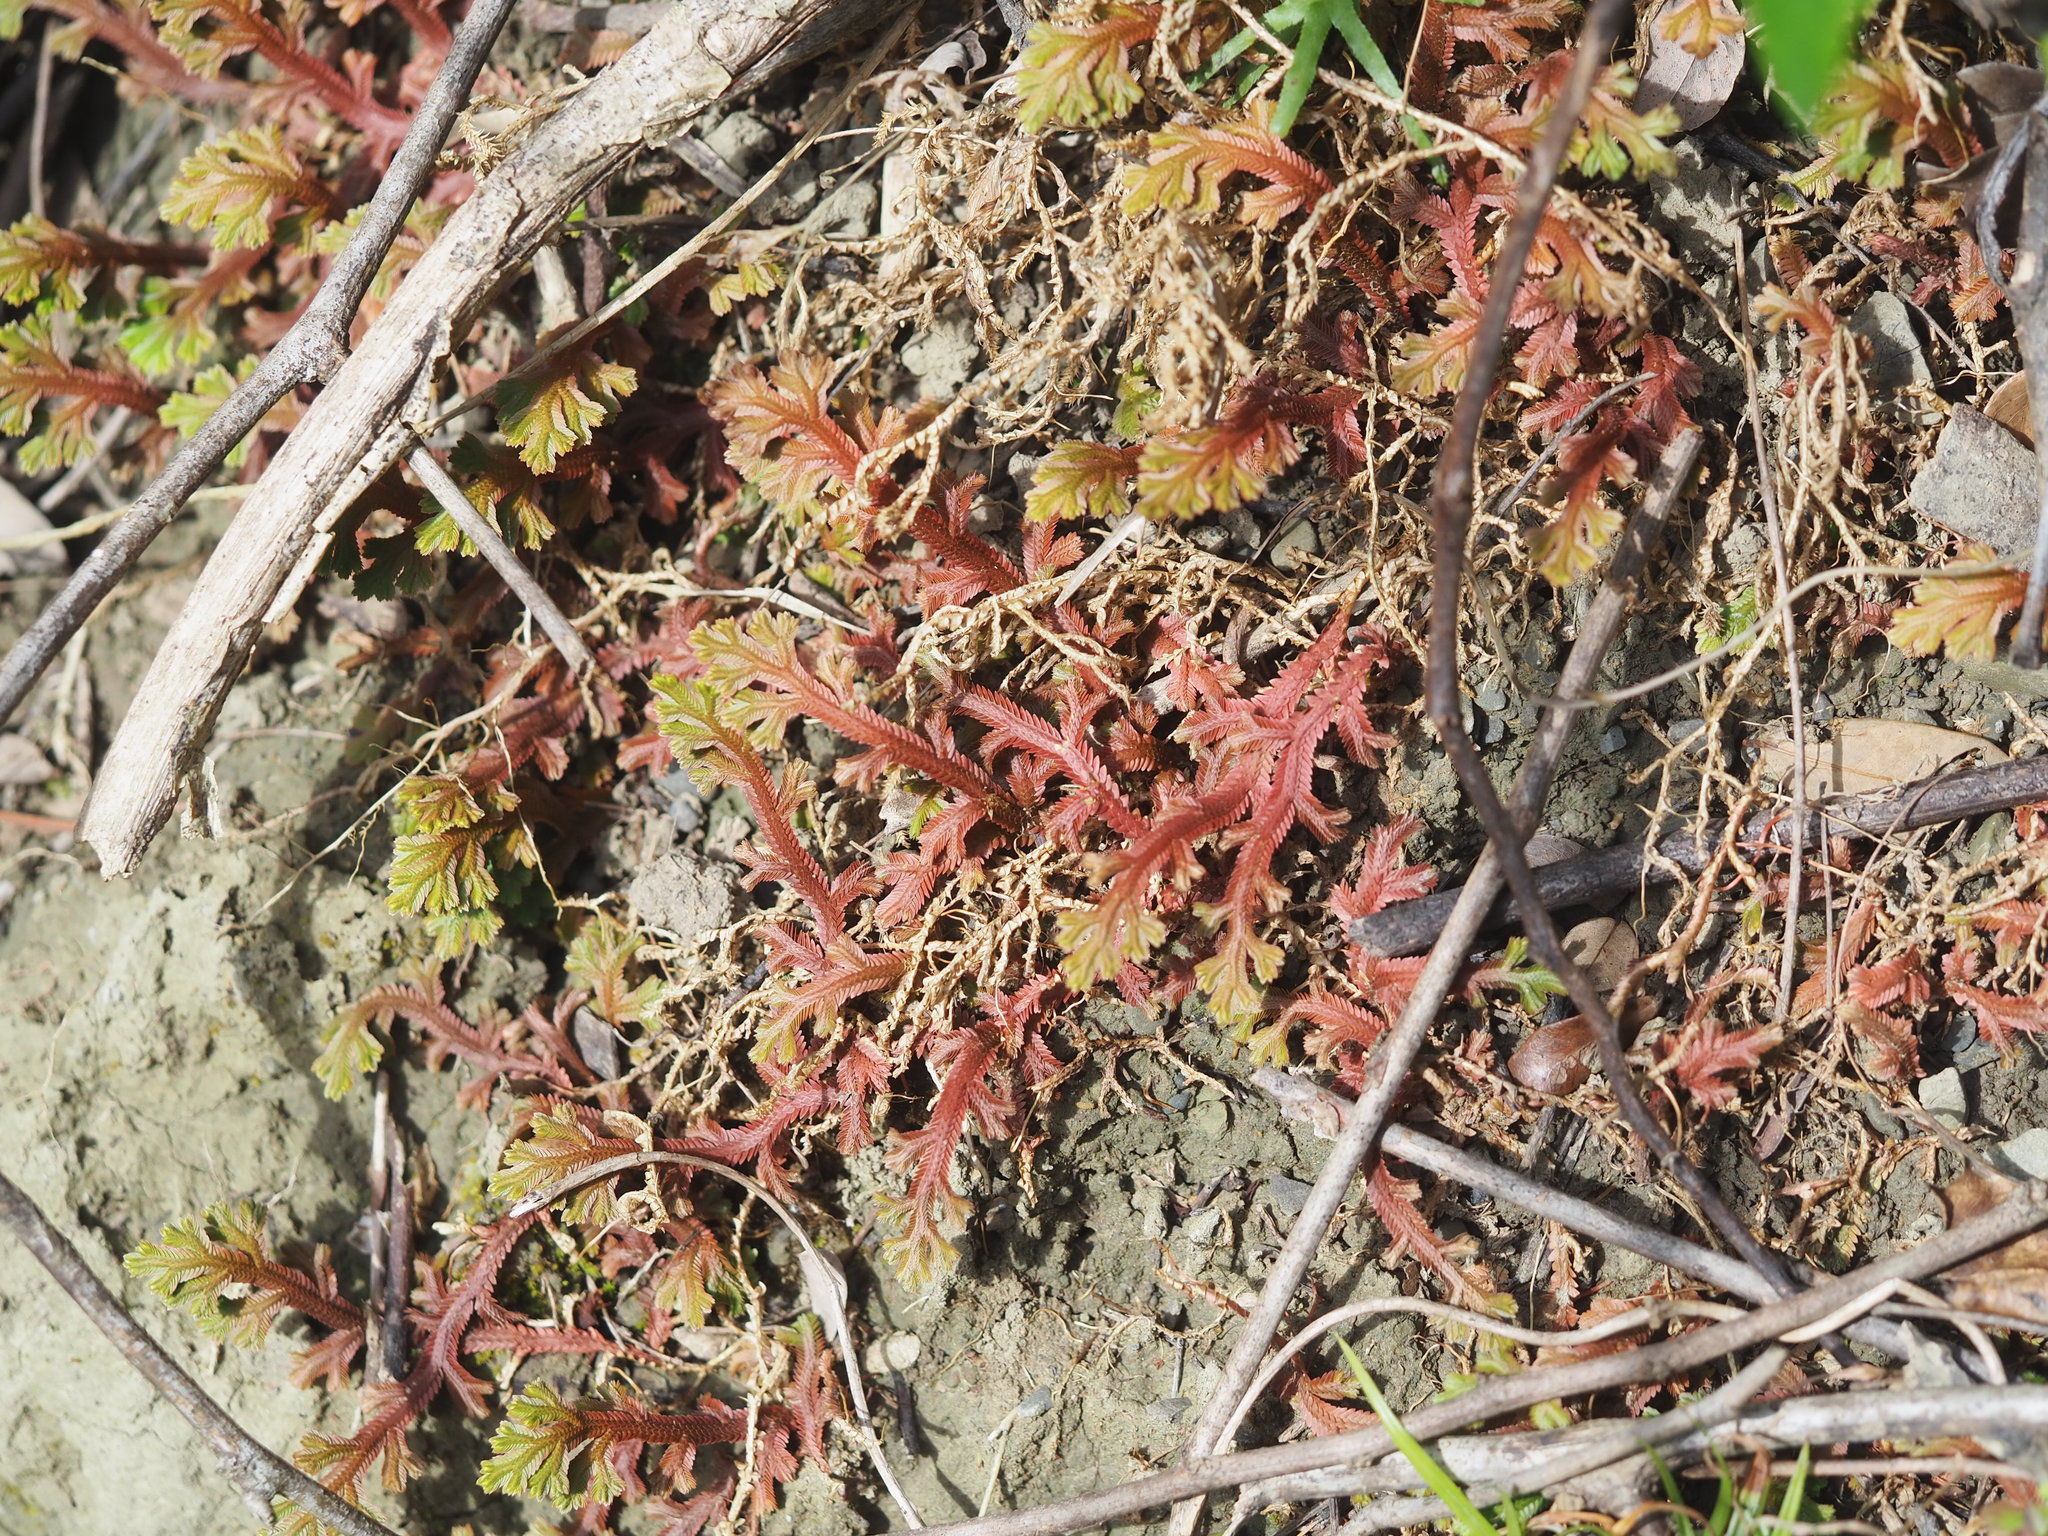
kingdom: Plantae
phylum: Tracheophyta
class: Lycopodiopsida
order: Selaginellales
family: Selaginellaceae
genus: Selaginella
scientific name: Selaginella repanda
